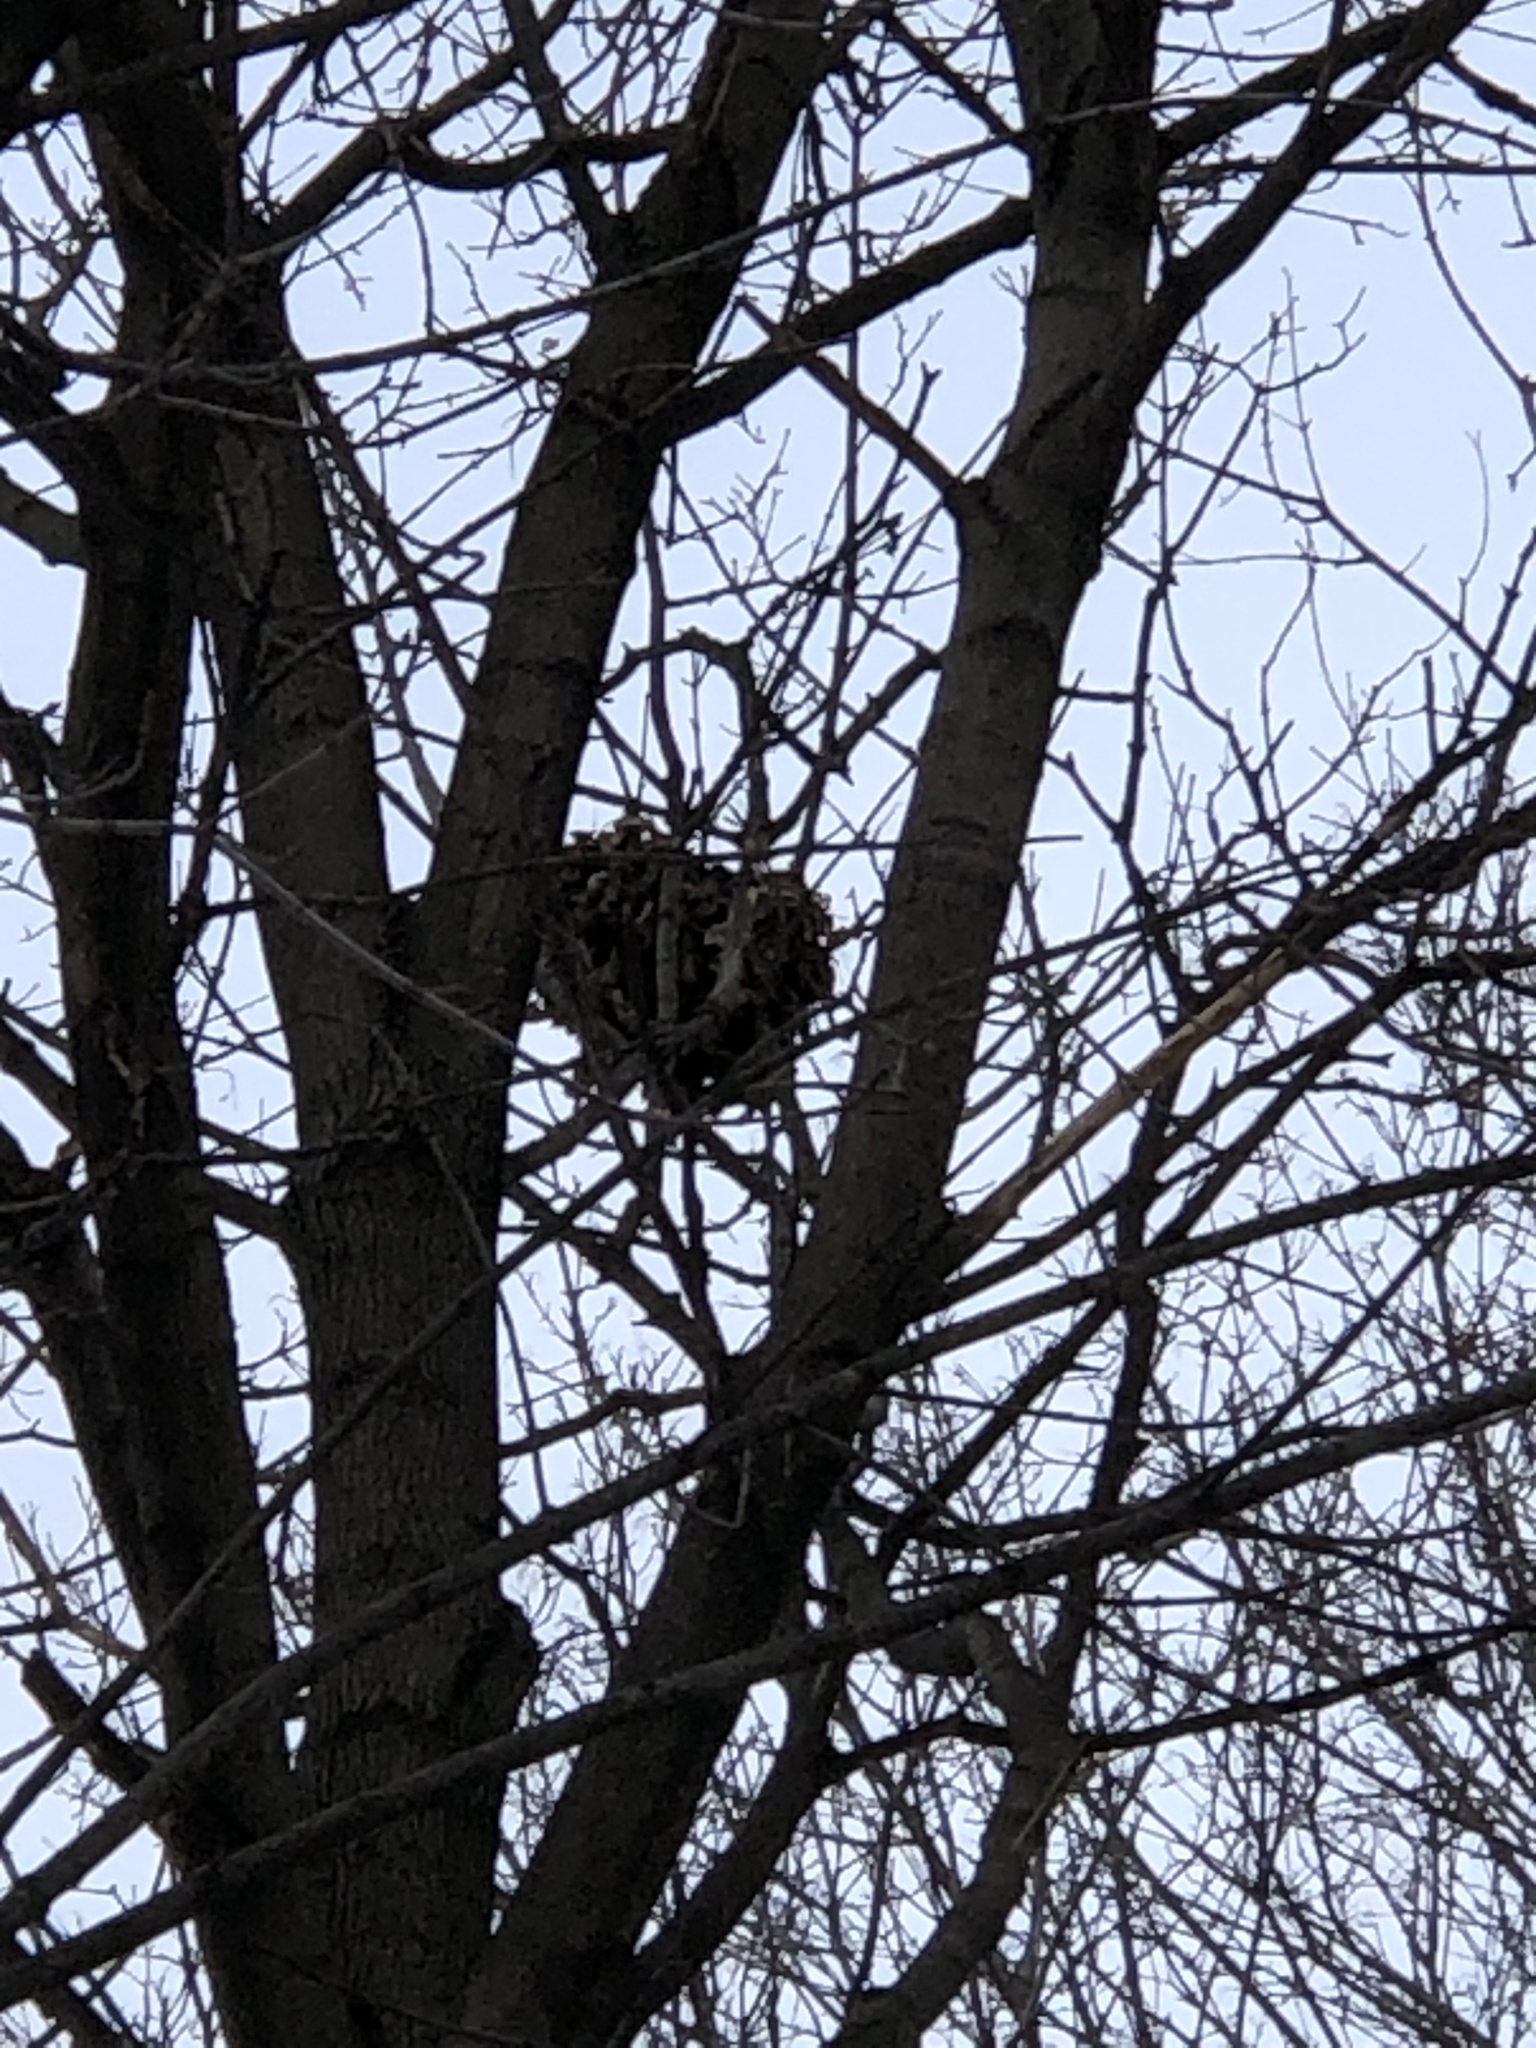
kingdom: Animalia
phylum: Chordata
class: Mammalia
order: Rodentia
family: Sciuridae
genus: Sciurus
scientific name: Sciurus carolinensis
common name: Eastern gray squirrel
